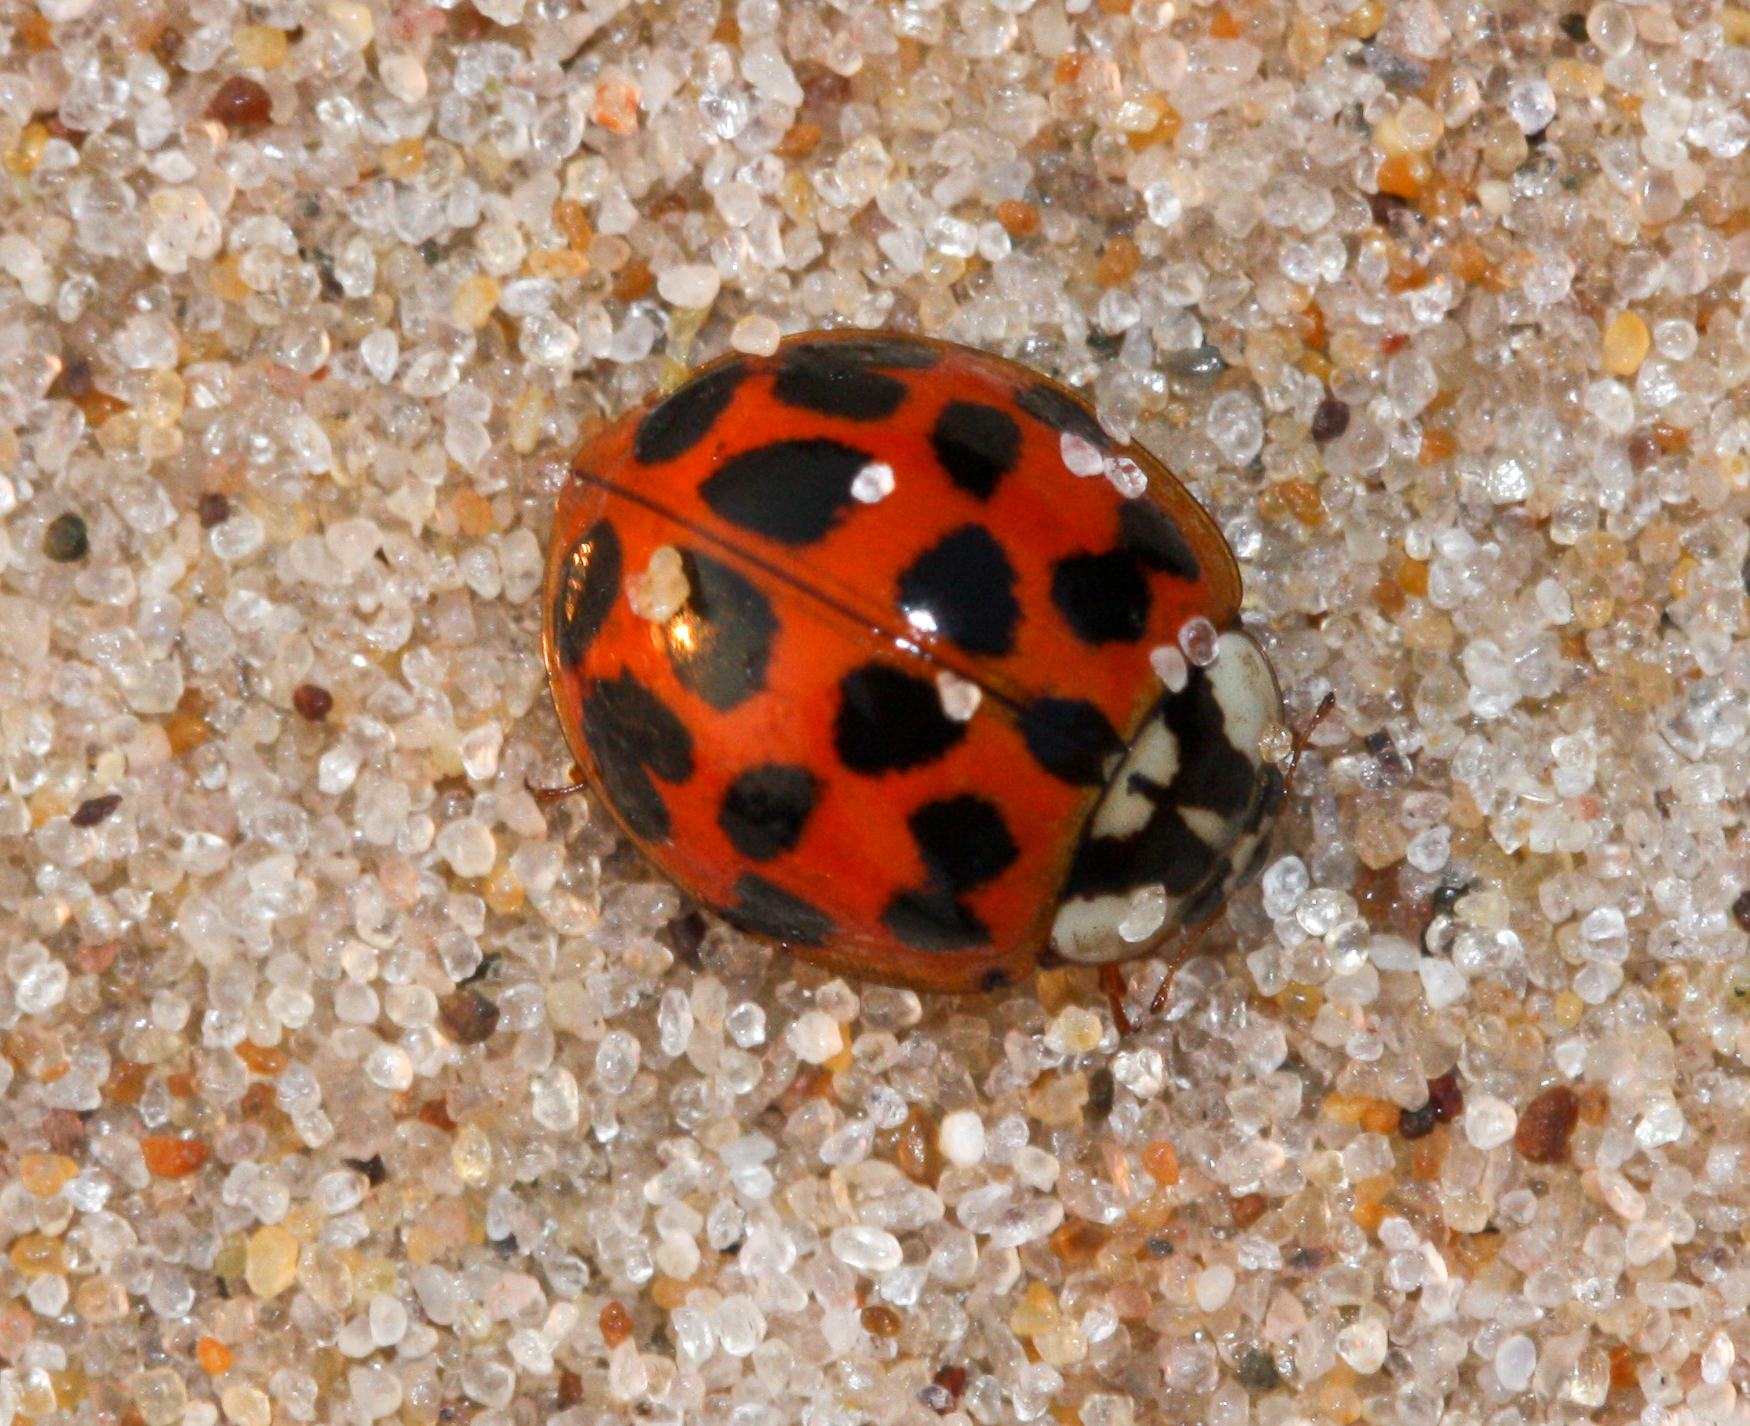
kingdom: Animalia
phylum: Arthropoda
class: Insecta
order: Coleoptera
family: Coccinellidae
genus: Harmonia
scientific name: Harmonia axyridis
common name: Harlequin ladybird
